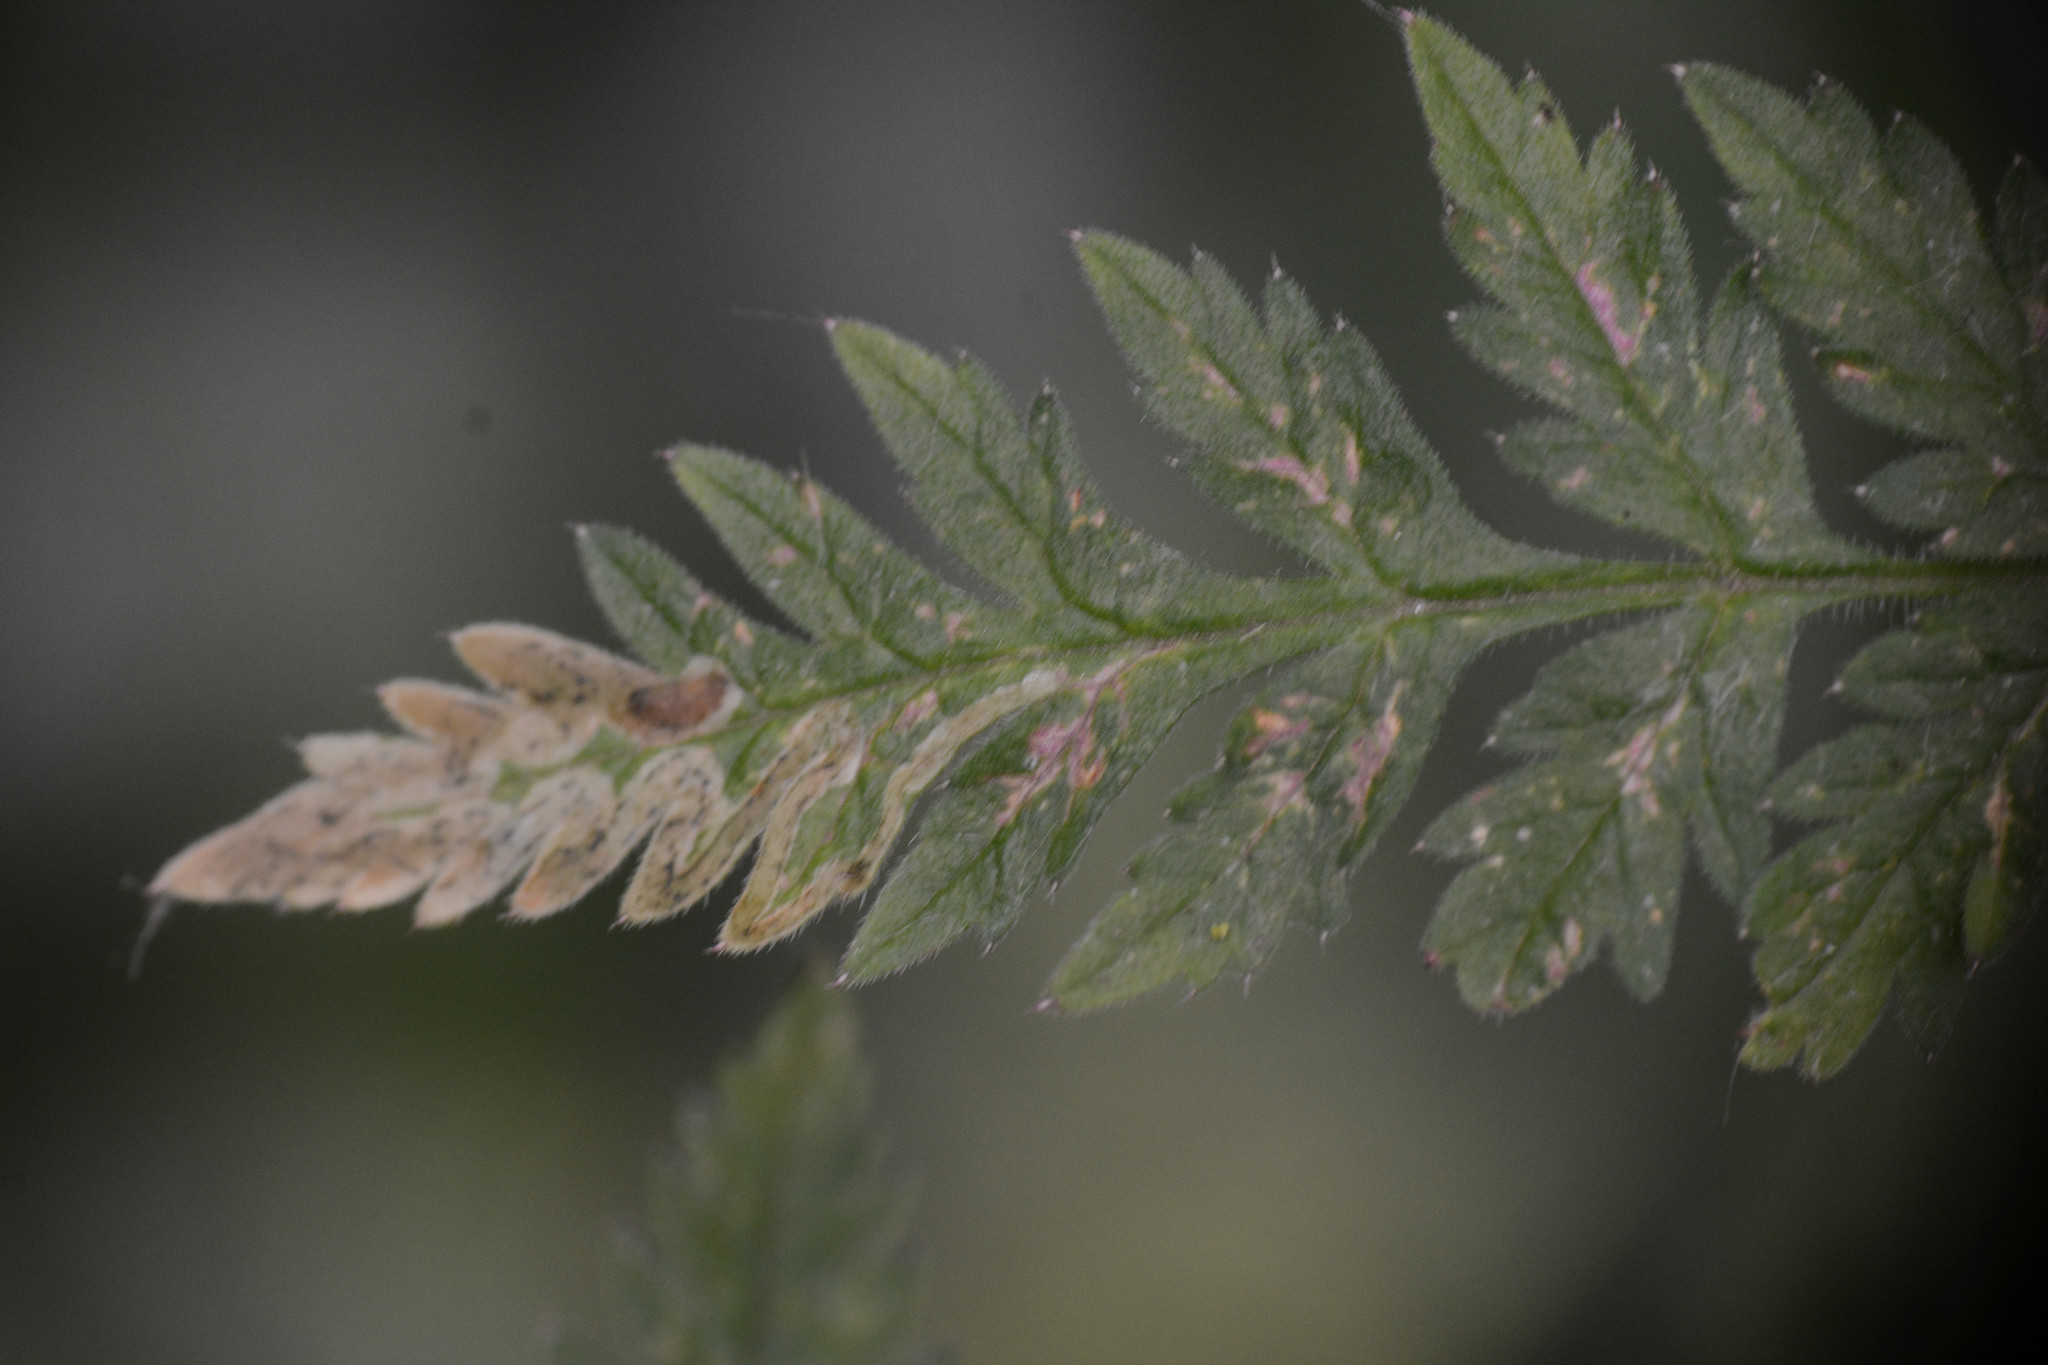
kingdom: Animalia
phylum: Arthropoda
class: Insecta
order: Diptera
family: Agromyzidae
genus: Phytomyza
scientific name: Phytomyza chaerophylli
